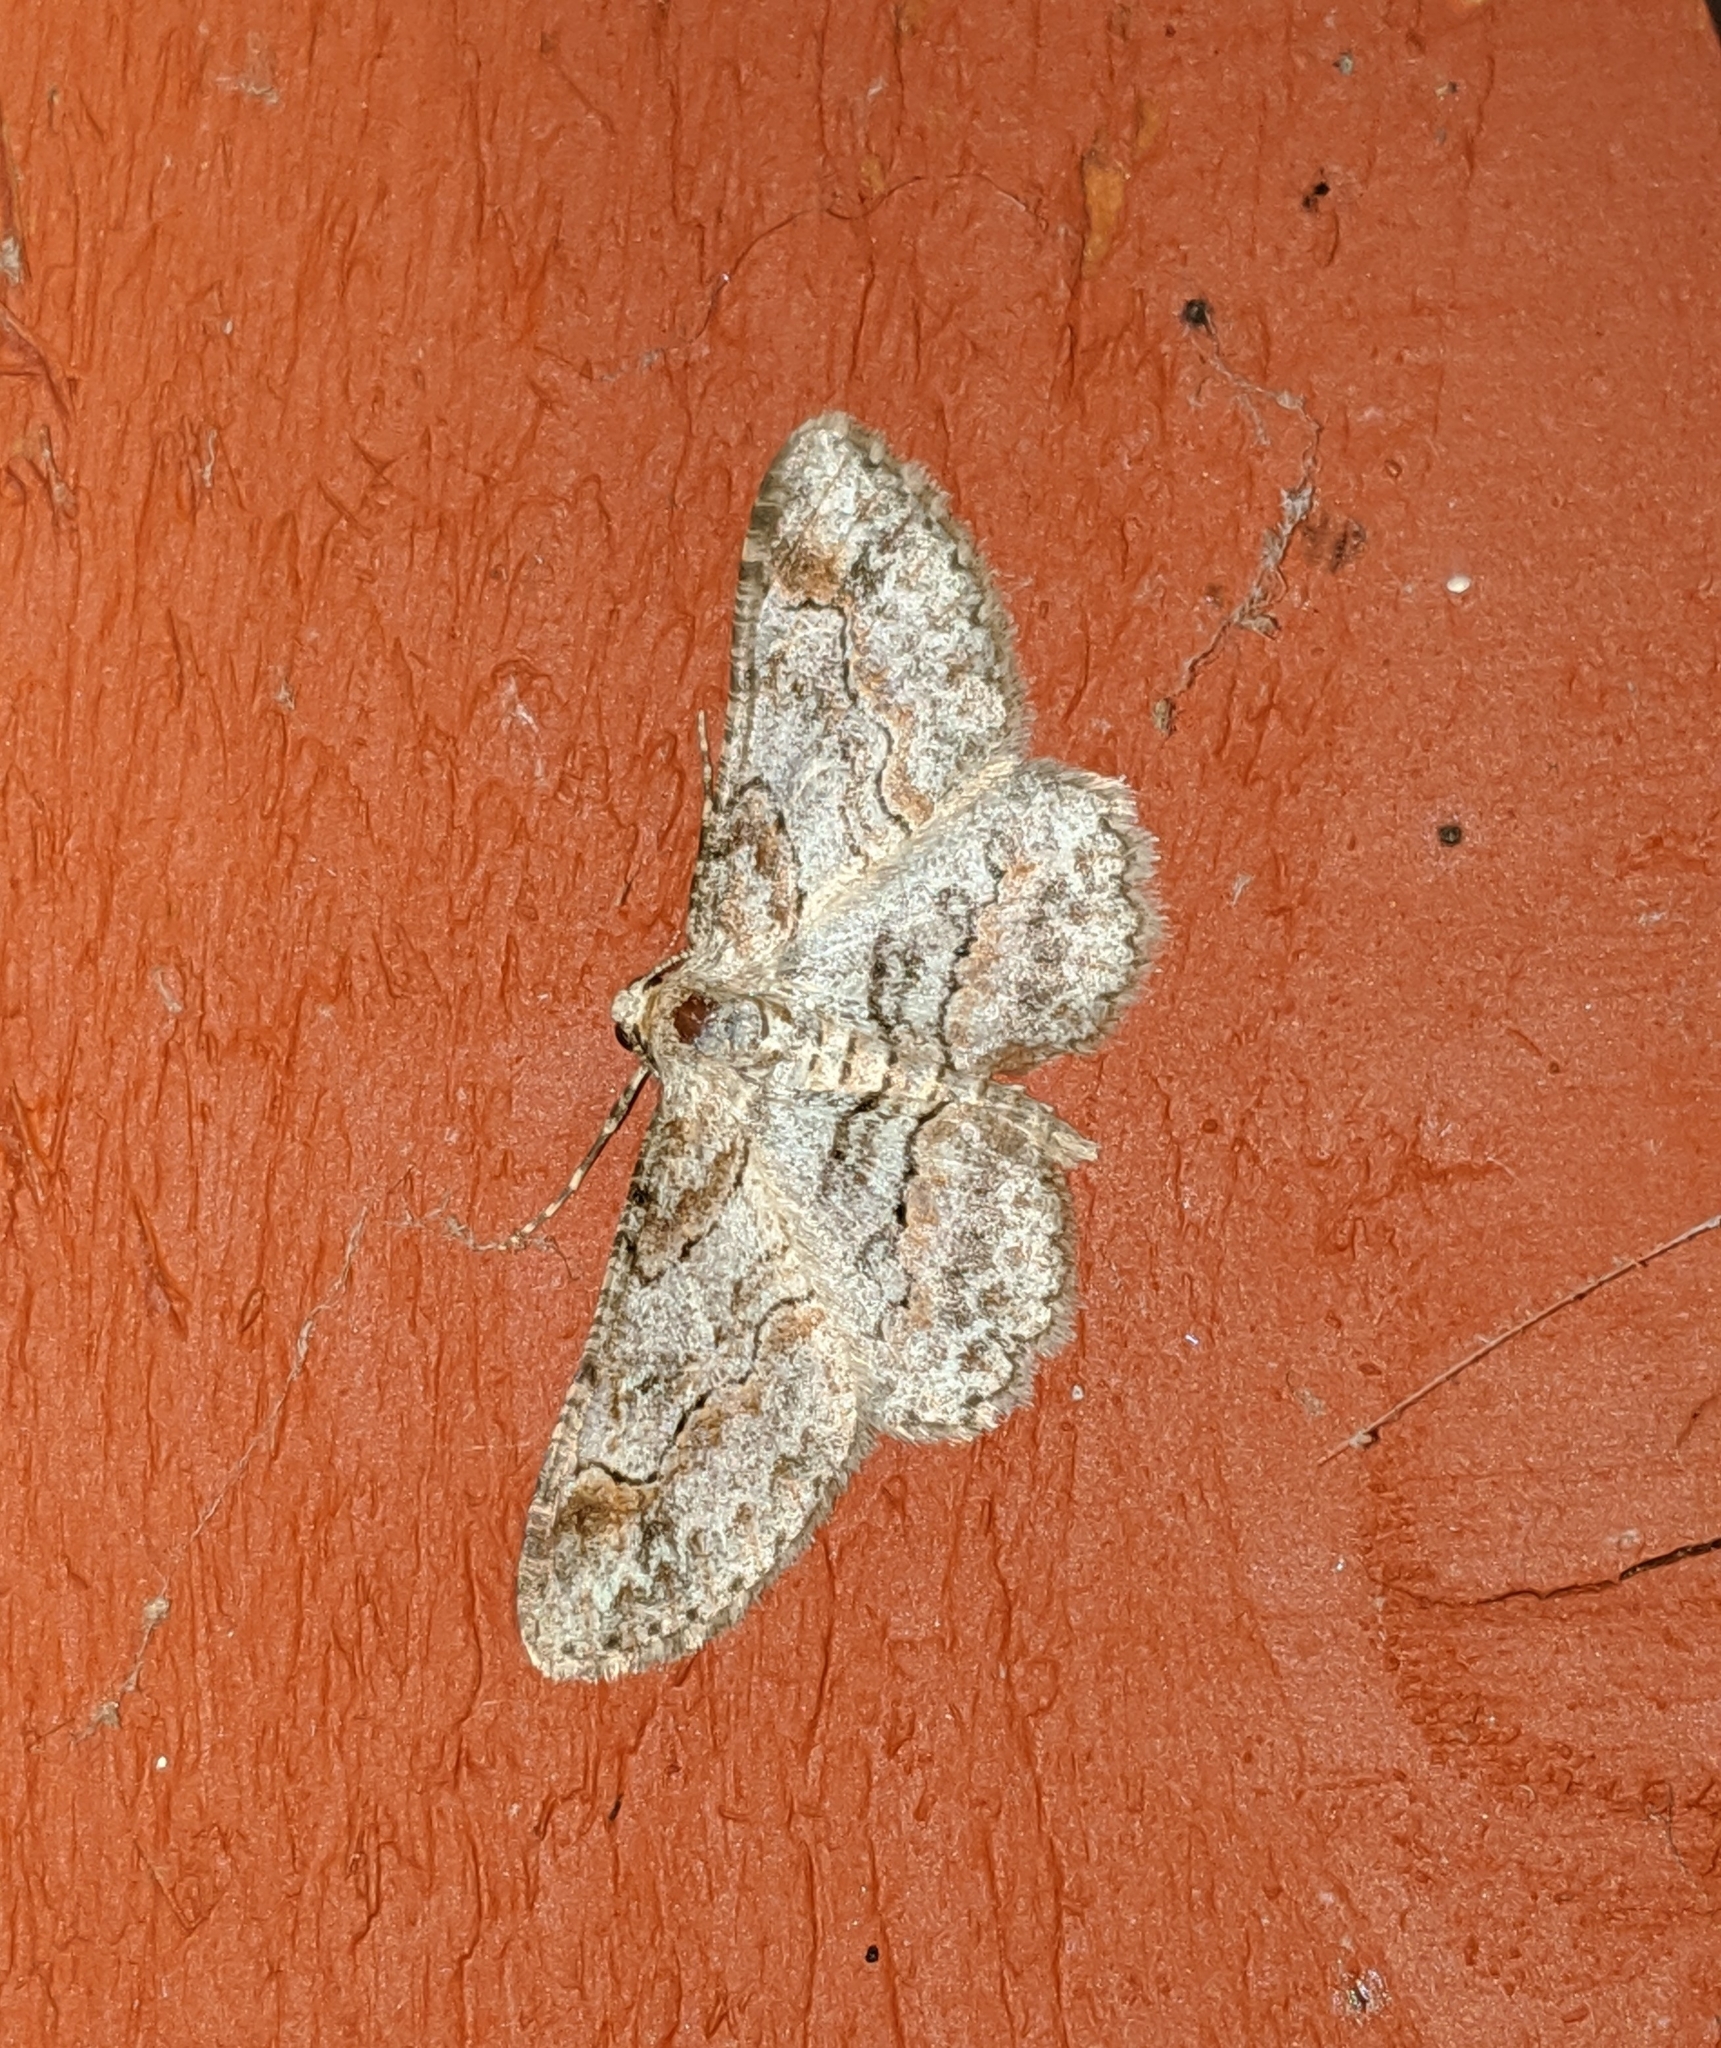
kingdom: Animalia
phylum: Arthropoda
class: Insecta
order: Lepidoptera
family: Geometridae
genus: Iridopsis
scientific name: Iridopsis emasculatum
